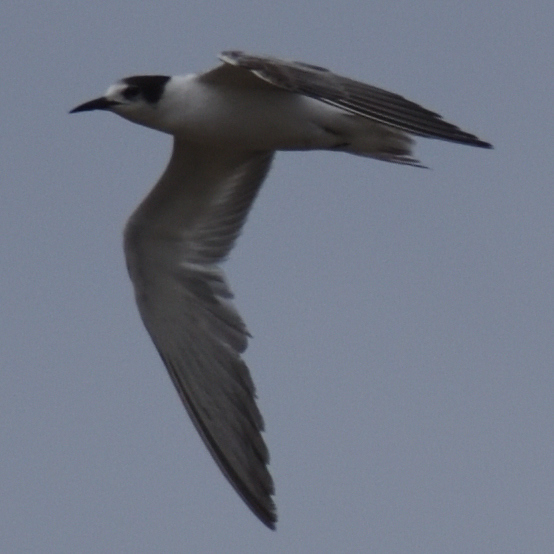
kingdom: Animalia
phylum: Chordata
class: Aves
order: Charadriiformes
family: Laridae
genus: Sterna
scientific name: Sterna hirundo
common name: Common tern
